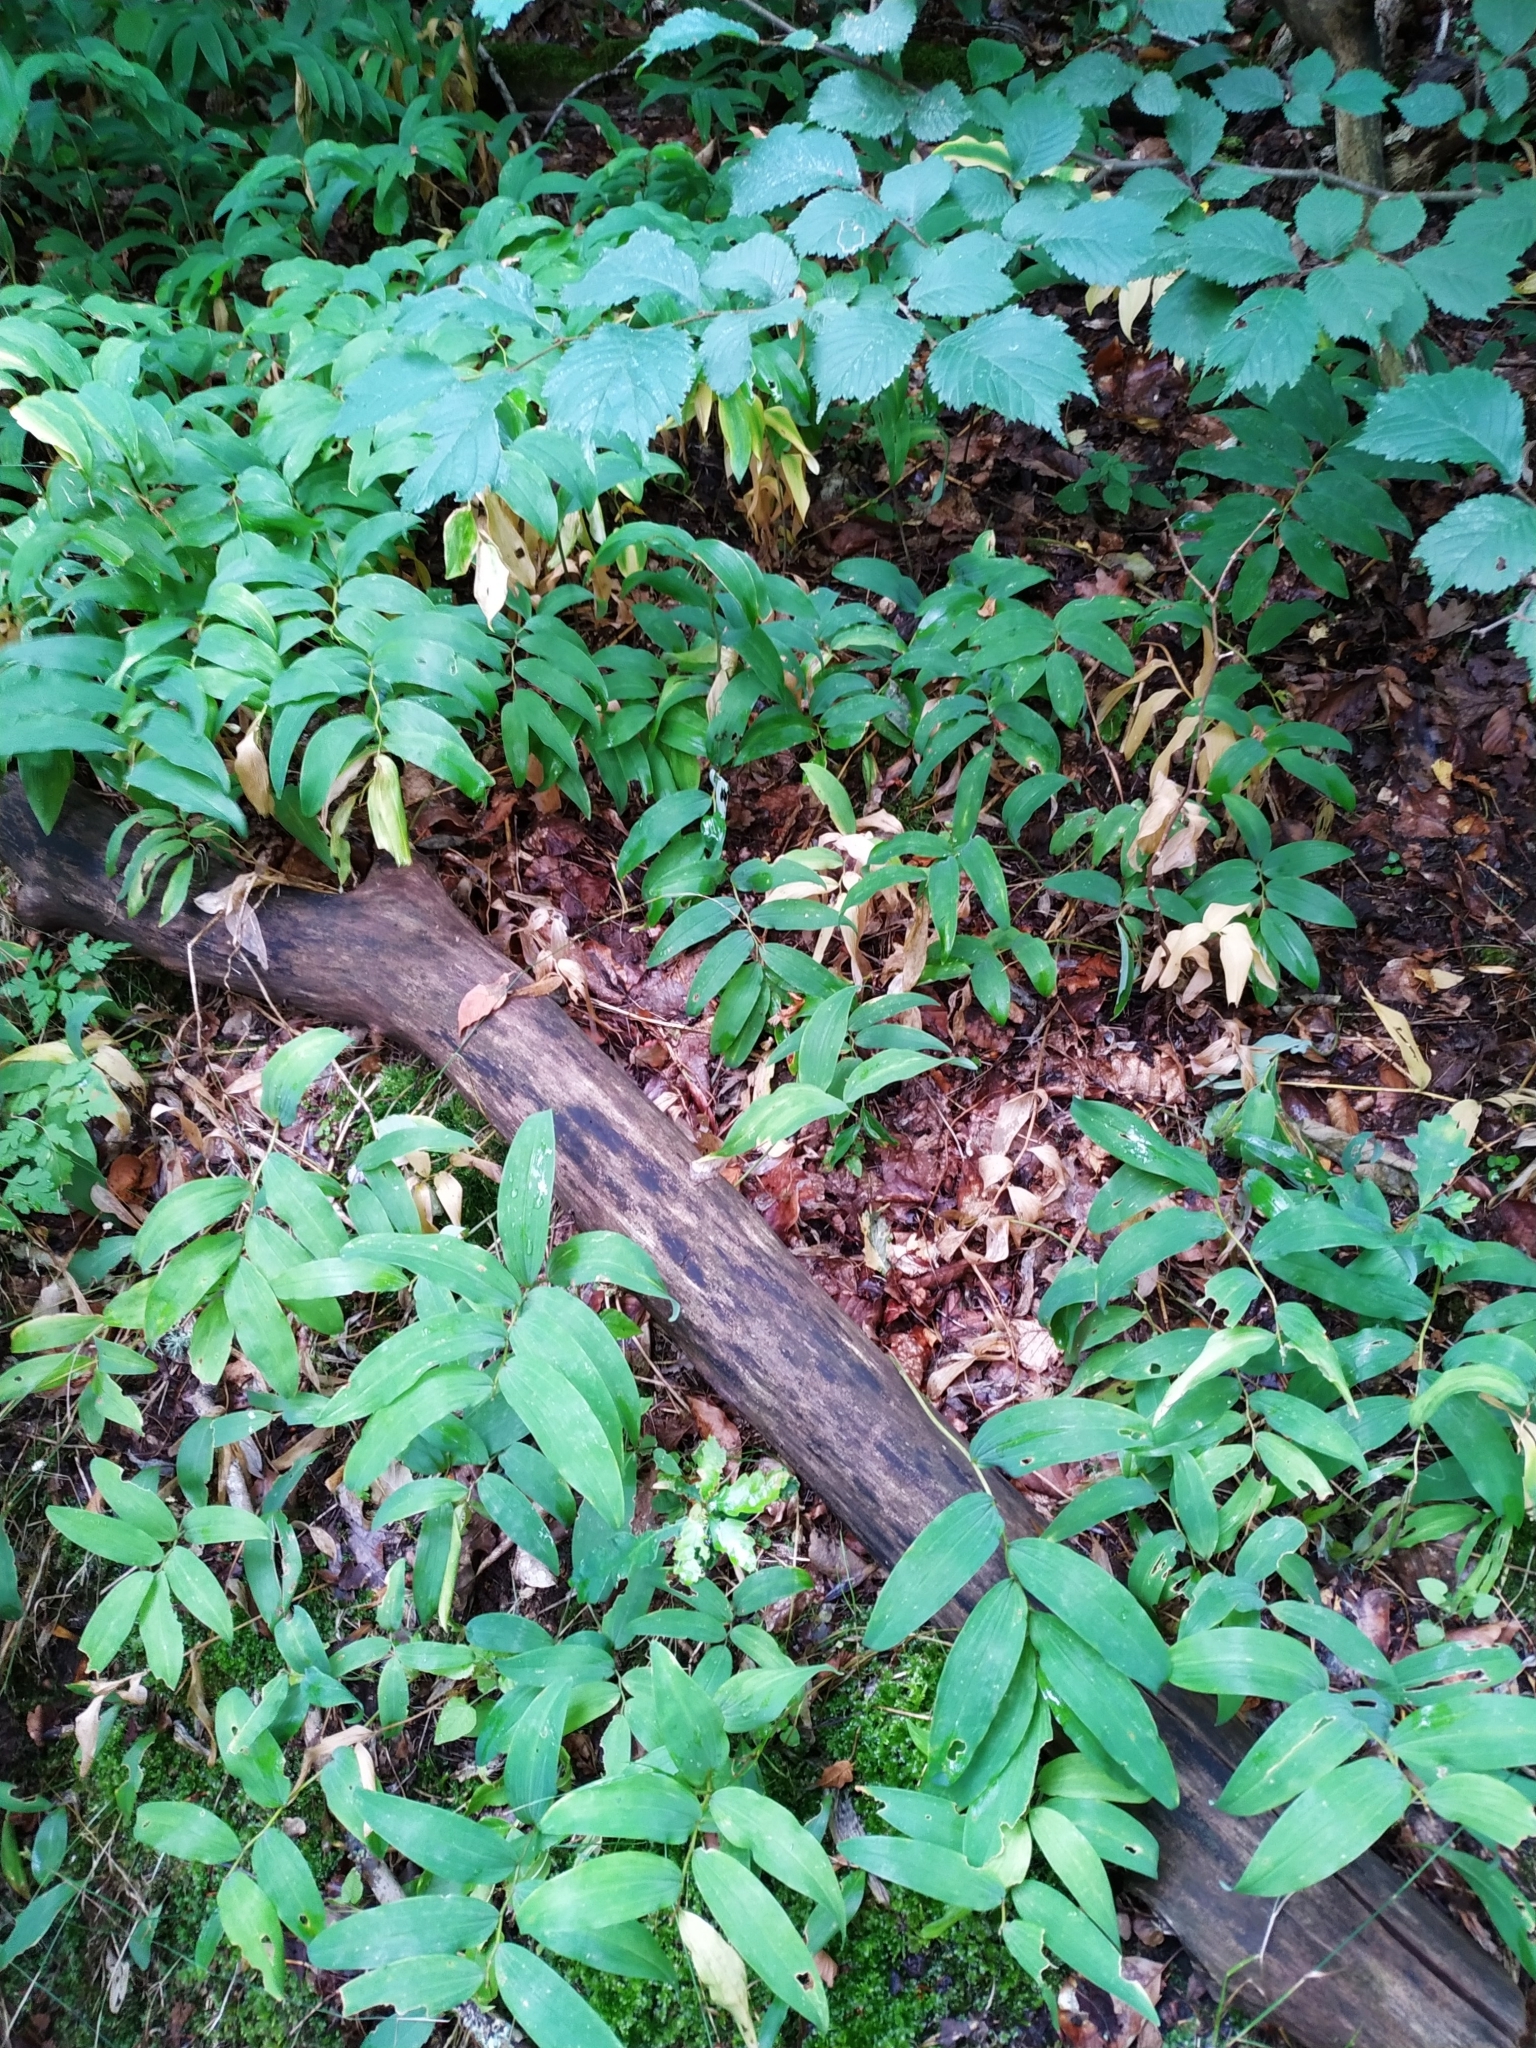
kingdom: Plantae
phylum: Tracheophyta
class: Liliopsida
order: Asparagales
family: Asparagaceae
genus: Polygonatum
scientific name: Polygonatum multiflorum
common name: Solomon's-seal
